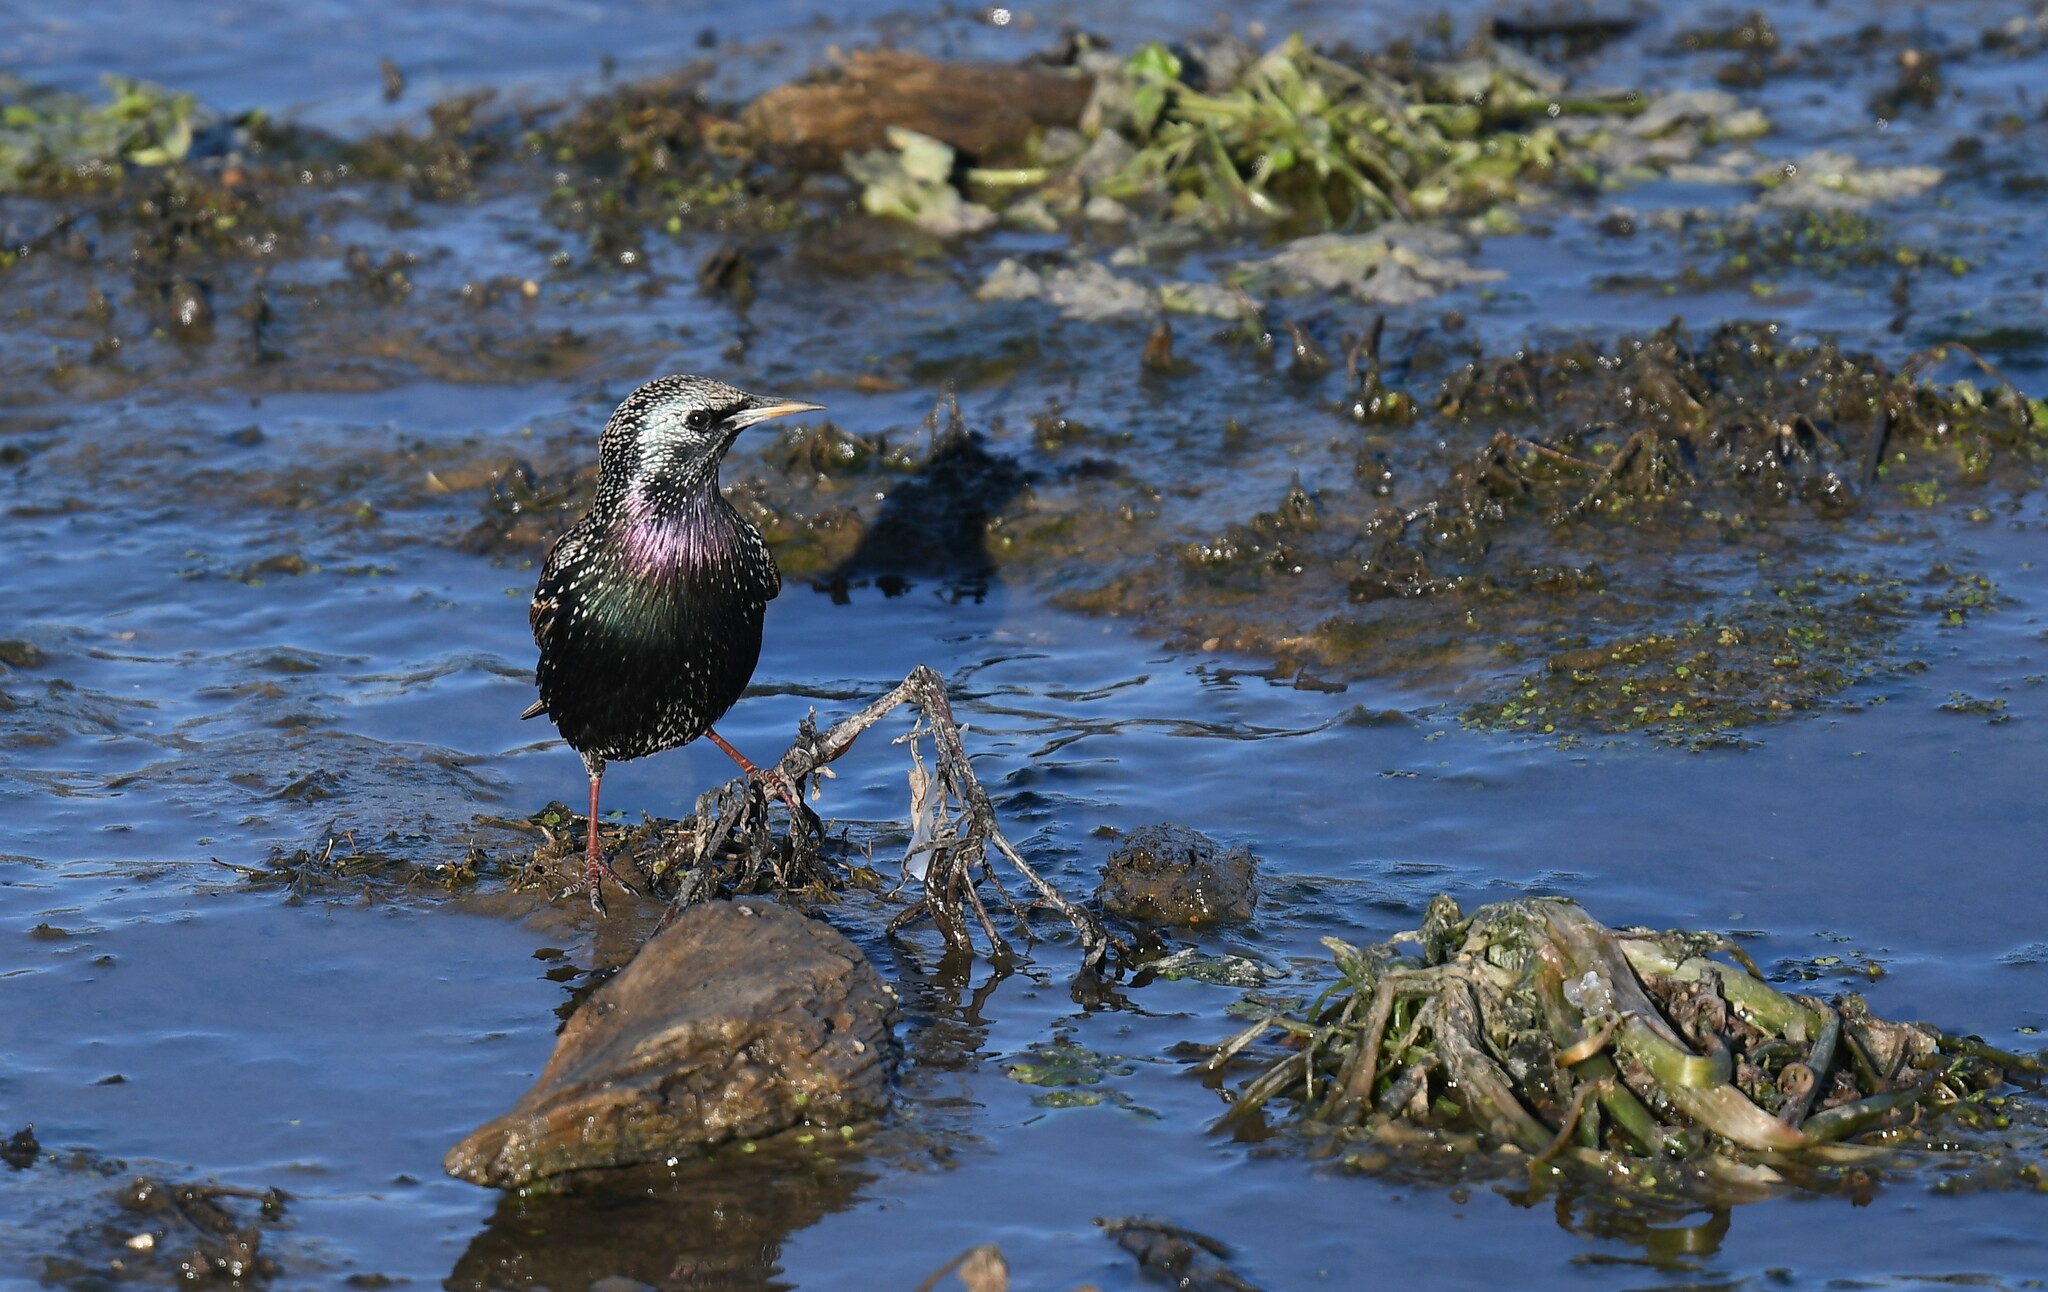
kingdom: Animalia
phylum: Chordata
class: Aves
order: Passeriformes
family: Sturnidae
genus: Sturnus
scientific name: Sturnus vulgaris
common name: Common starling
